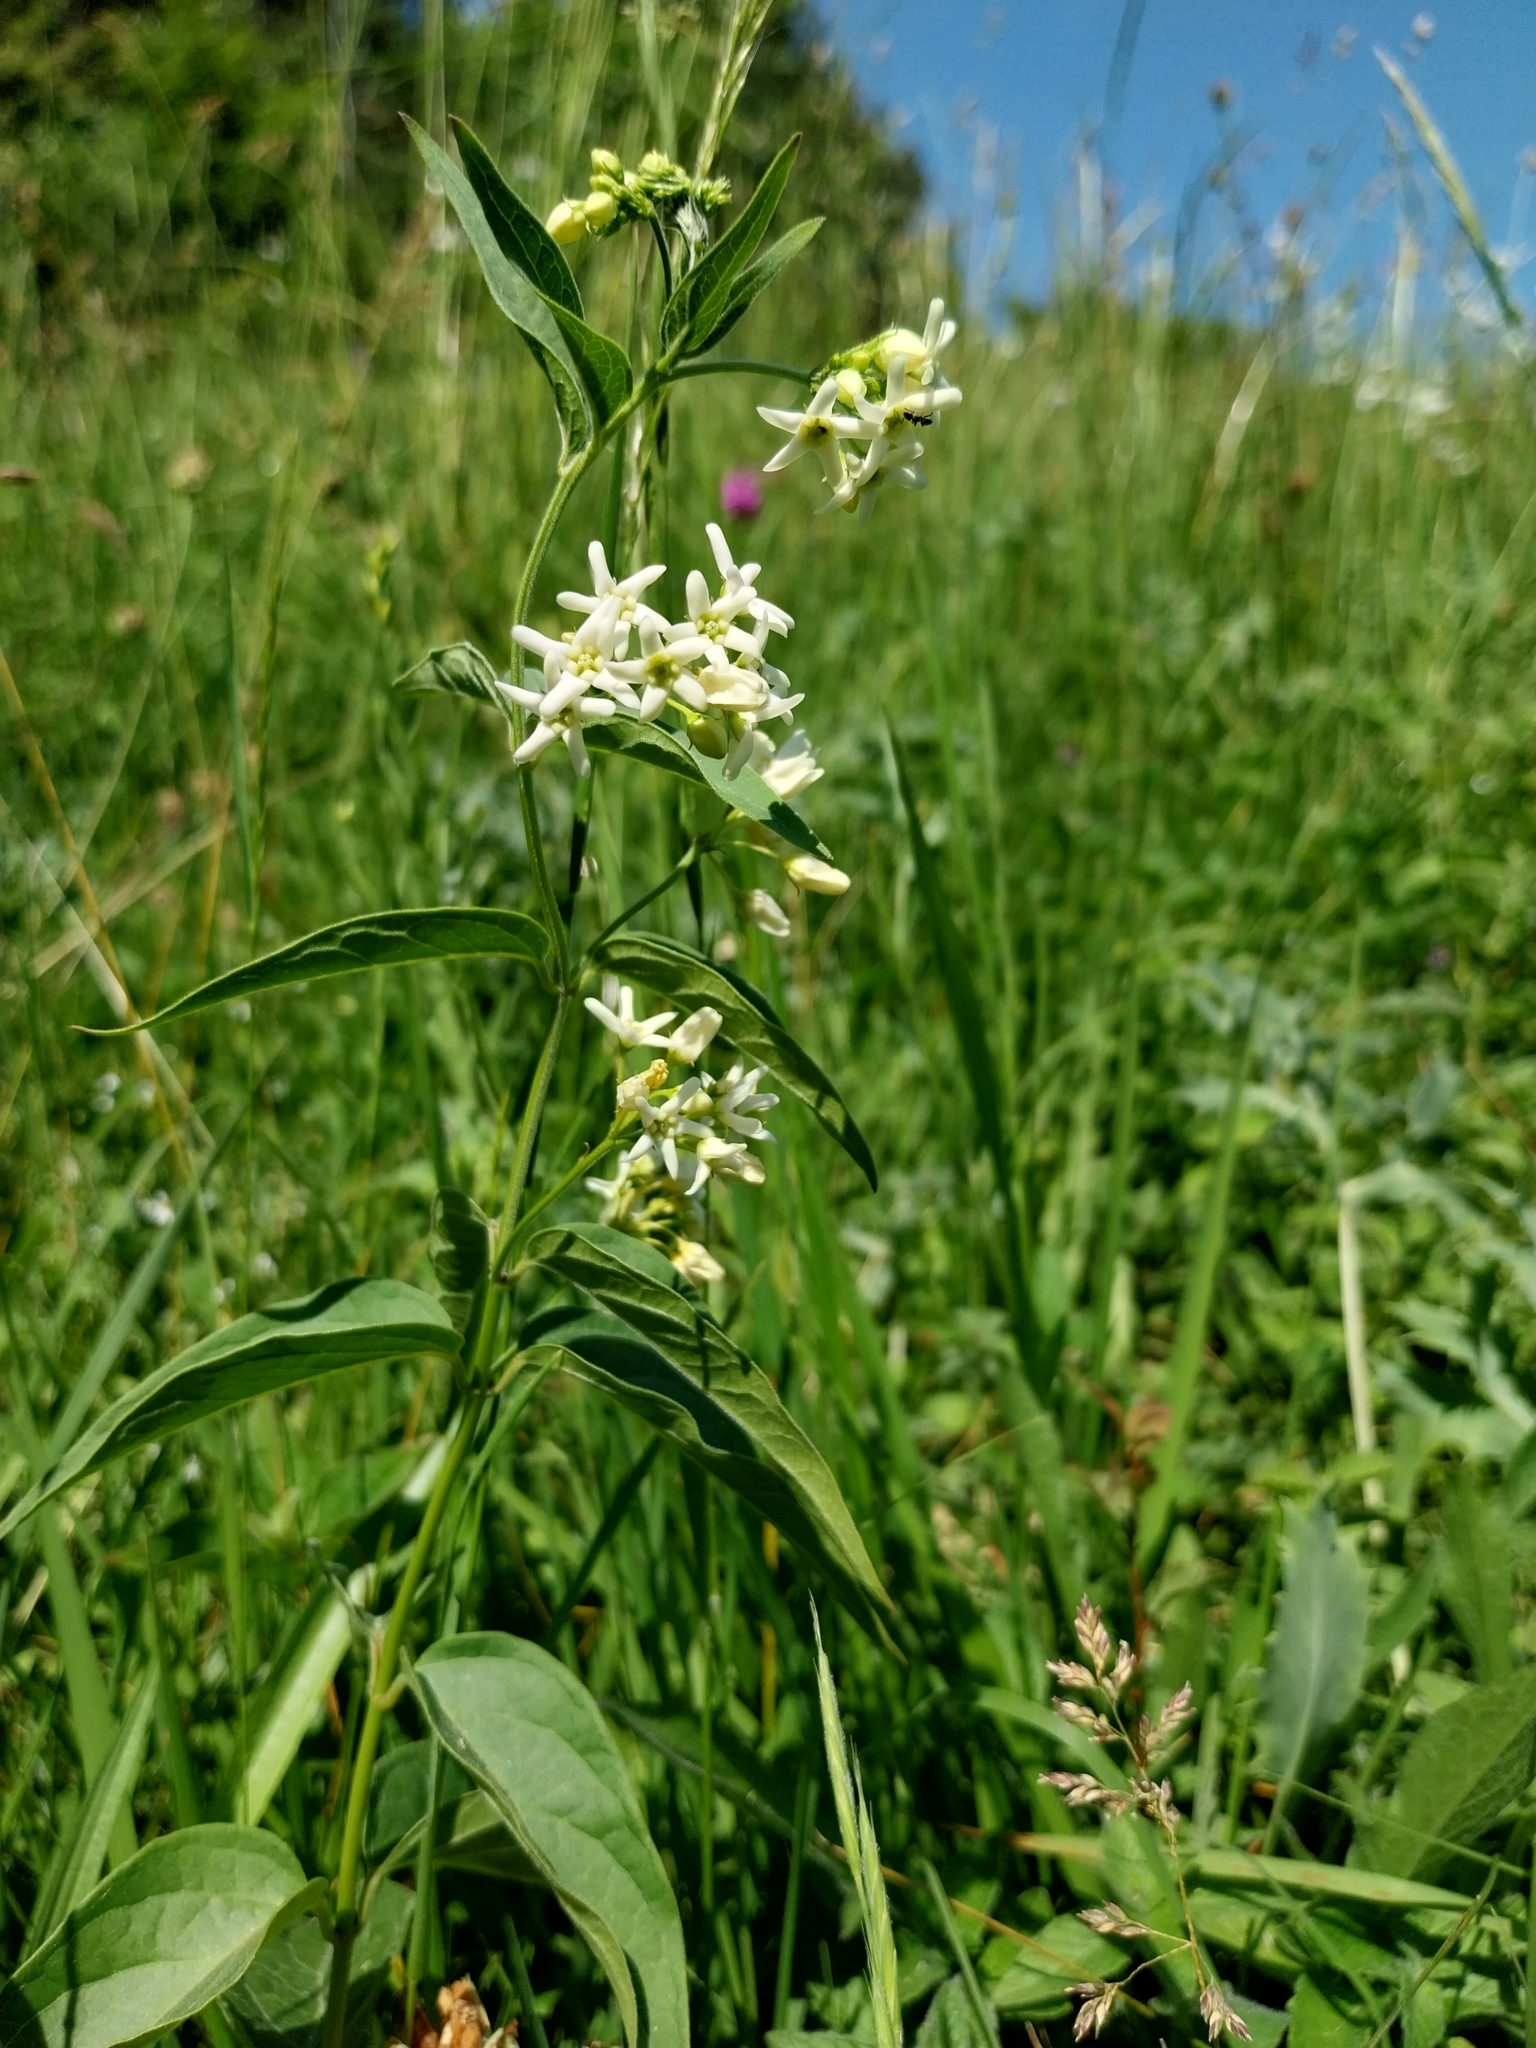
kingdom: Plantae
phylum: Tracheophyta
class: Magnoliopsida
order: Gentianales
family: Apocynaceae
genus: Vincetoxicum
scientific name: Vincetoxicum hirundinaria
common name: White swallowwort
